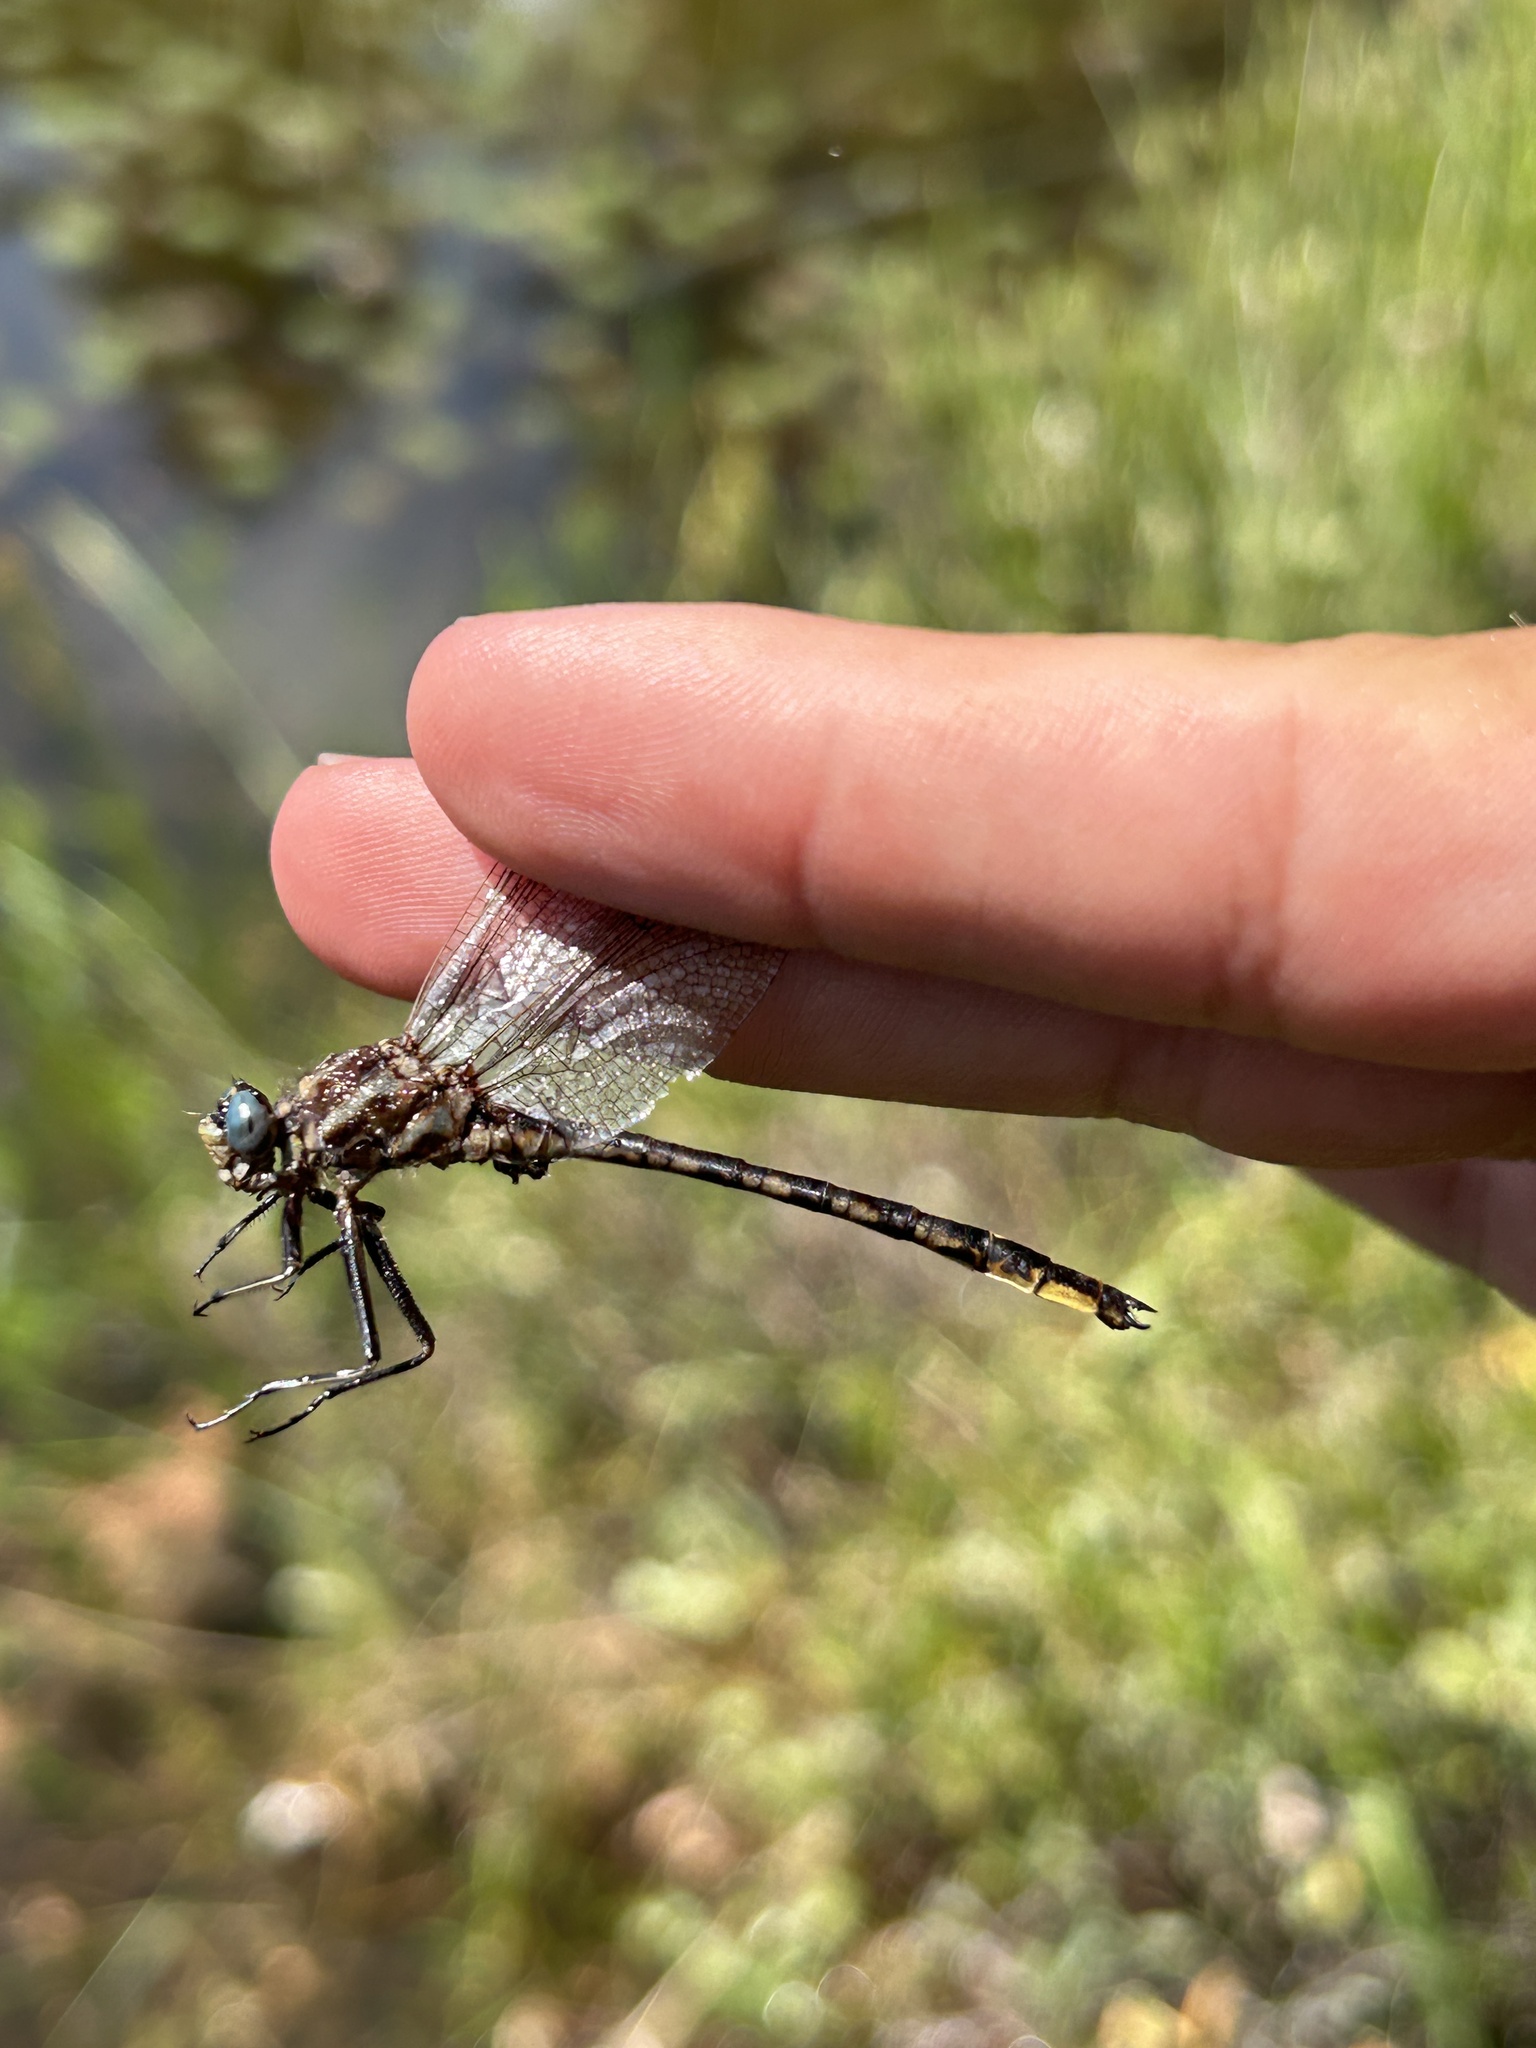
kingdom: Animalia
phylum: Arthropoda
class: Insecta
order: Odonata
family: Gomphidae
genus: Phanogomphus
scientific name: Phanogomphus spicatus
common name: Dusky clubtail
